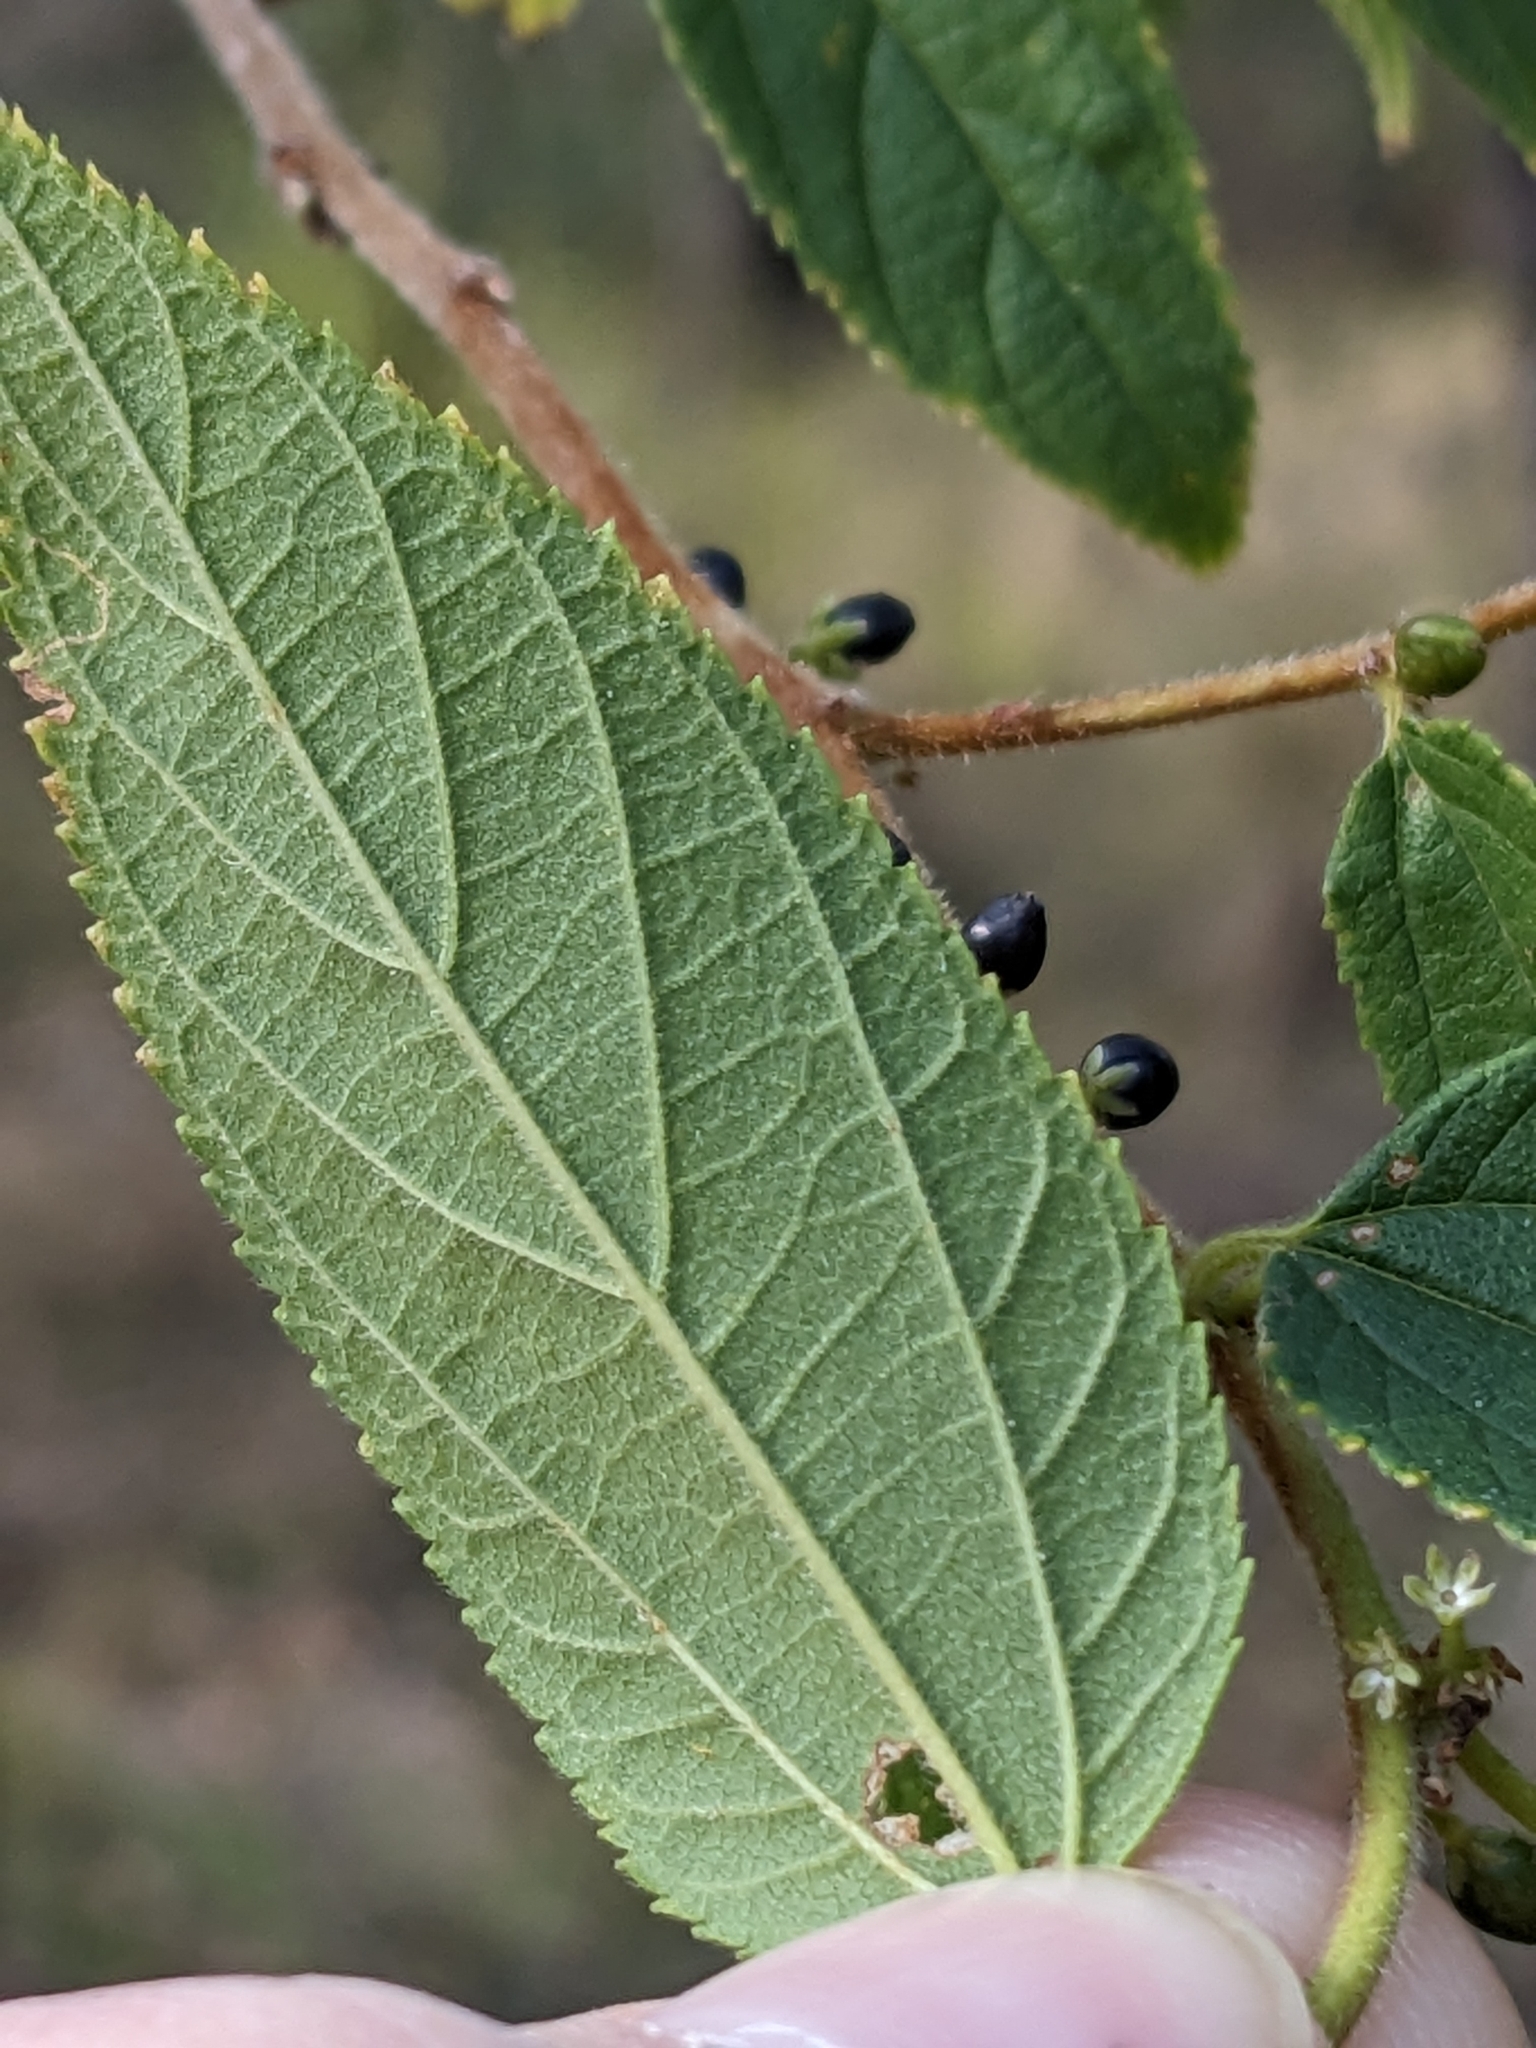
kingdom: Plantae
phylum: Tracheophyta
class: Magnoliopsida
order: Rosales
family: Cannabaceae
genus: Trema
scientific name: Trema tomentosum
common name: Peach-leaf-poisonbush
